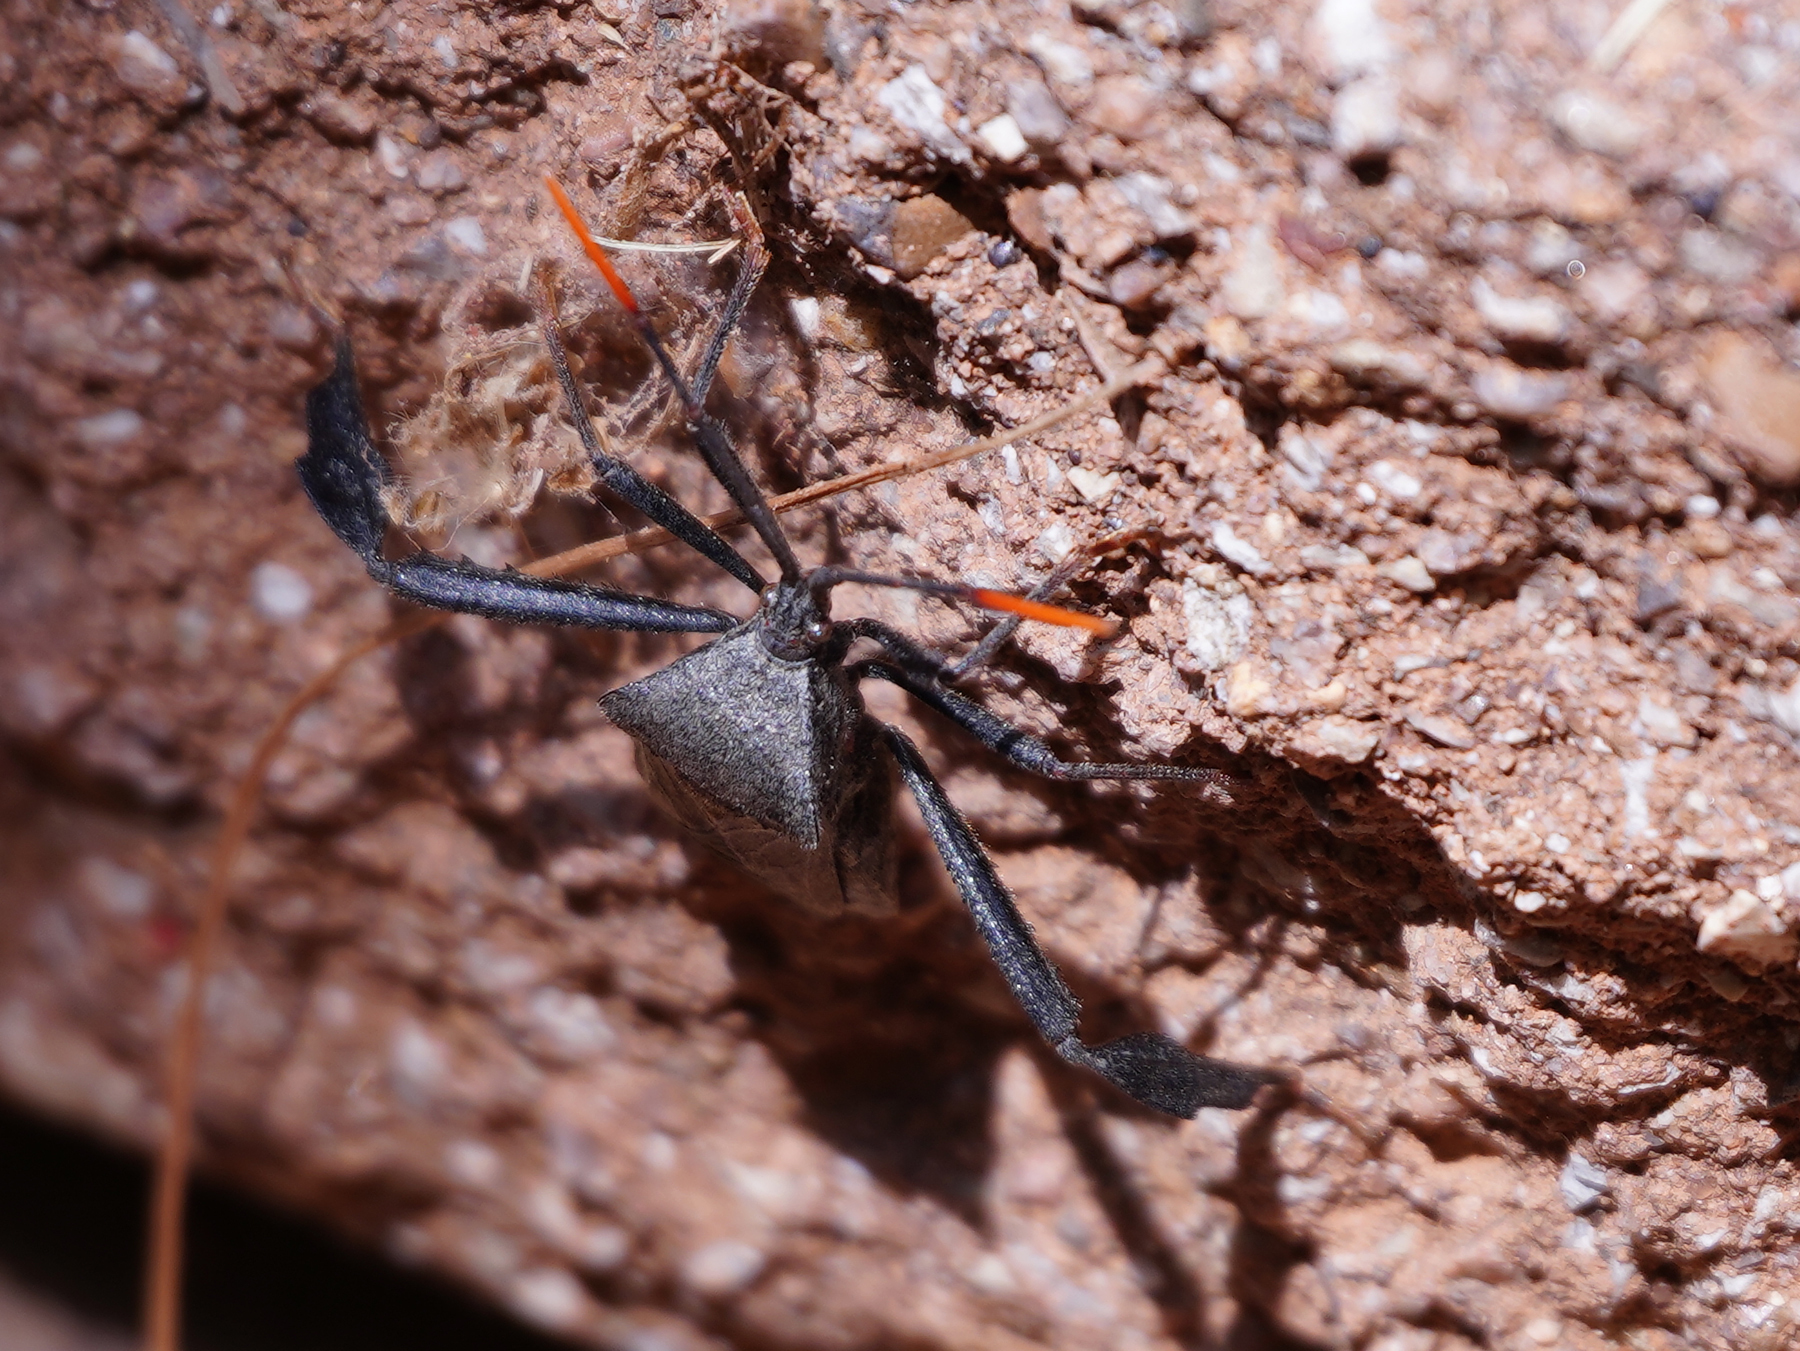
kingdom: Animalia
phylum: Arthropoda
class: Insecta
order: Hemiptera
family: Coreidae
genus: Acanthocephala
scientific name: Acanthocephala terminalis
